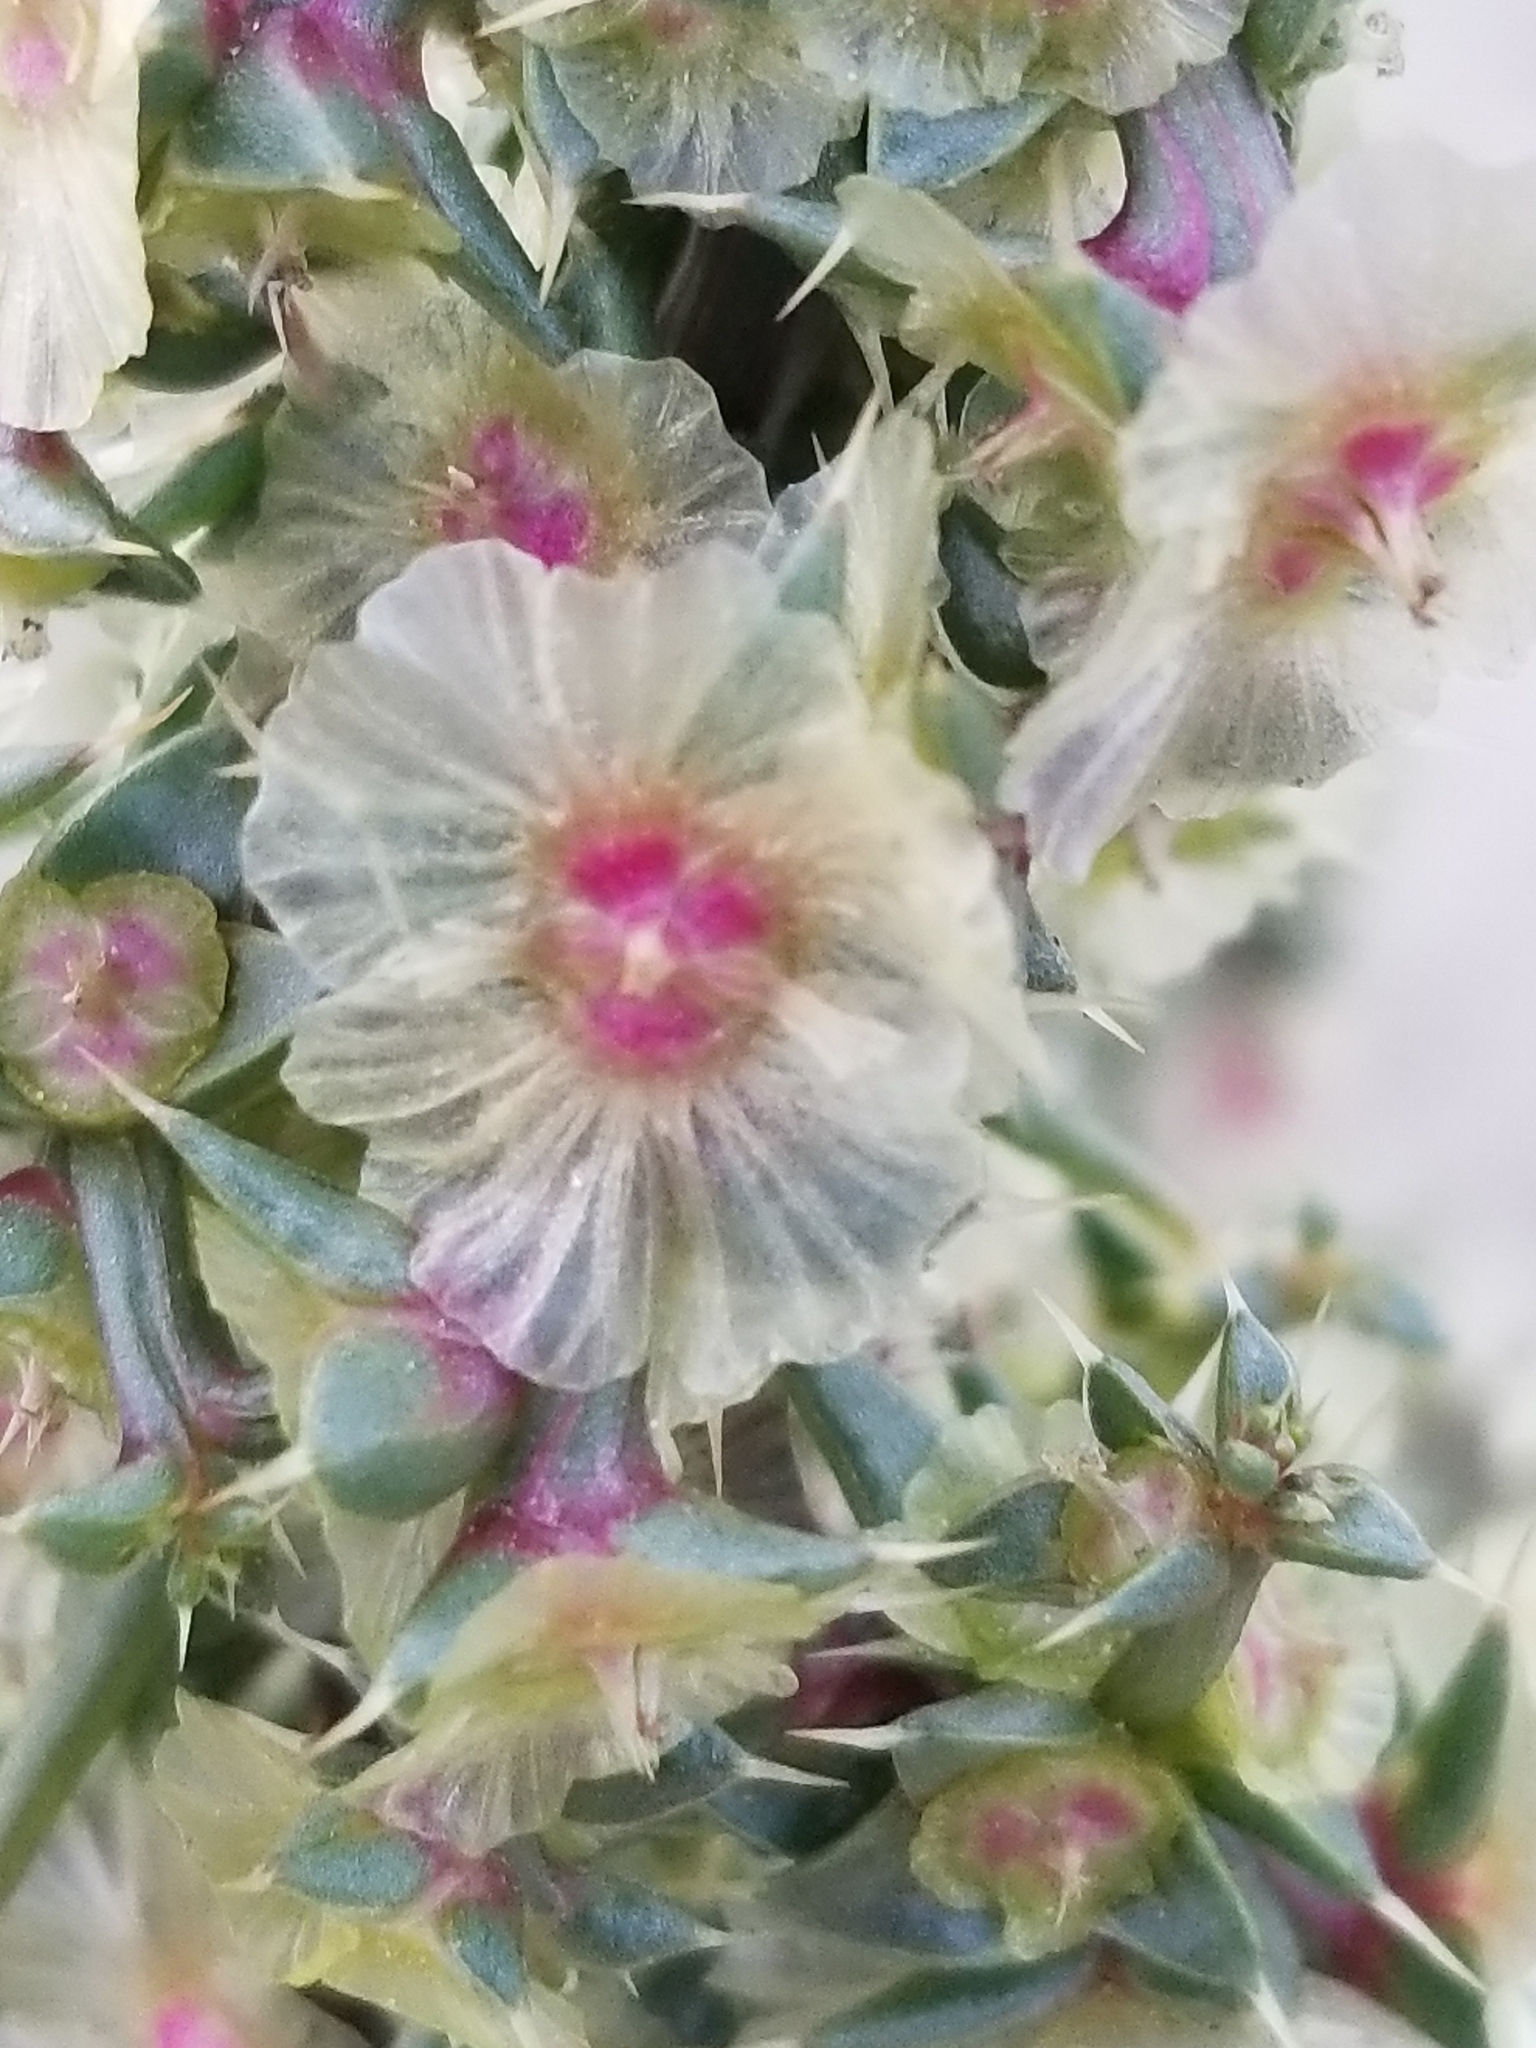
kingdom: Plantae
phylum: Tracheophyta
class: Magnoliopsida
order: Caryophyllales
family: Amaranthaceae
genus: Salsola
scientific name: Salsola tragus
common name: Prickly russian thistle
